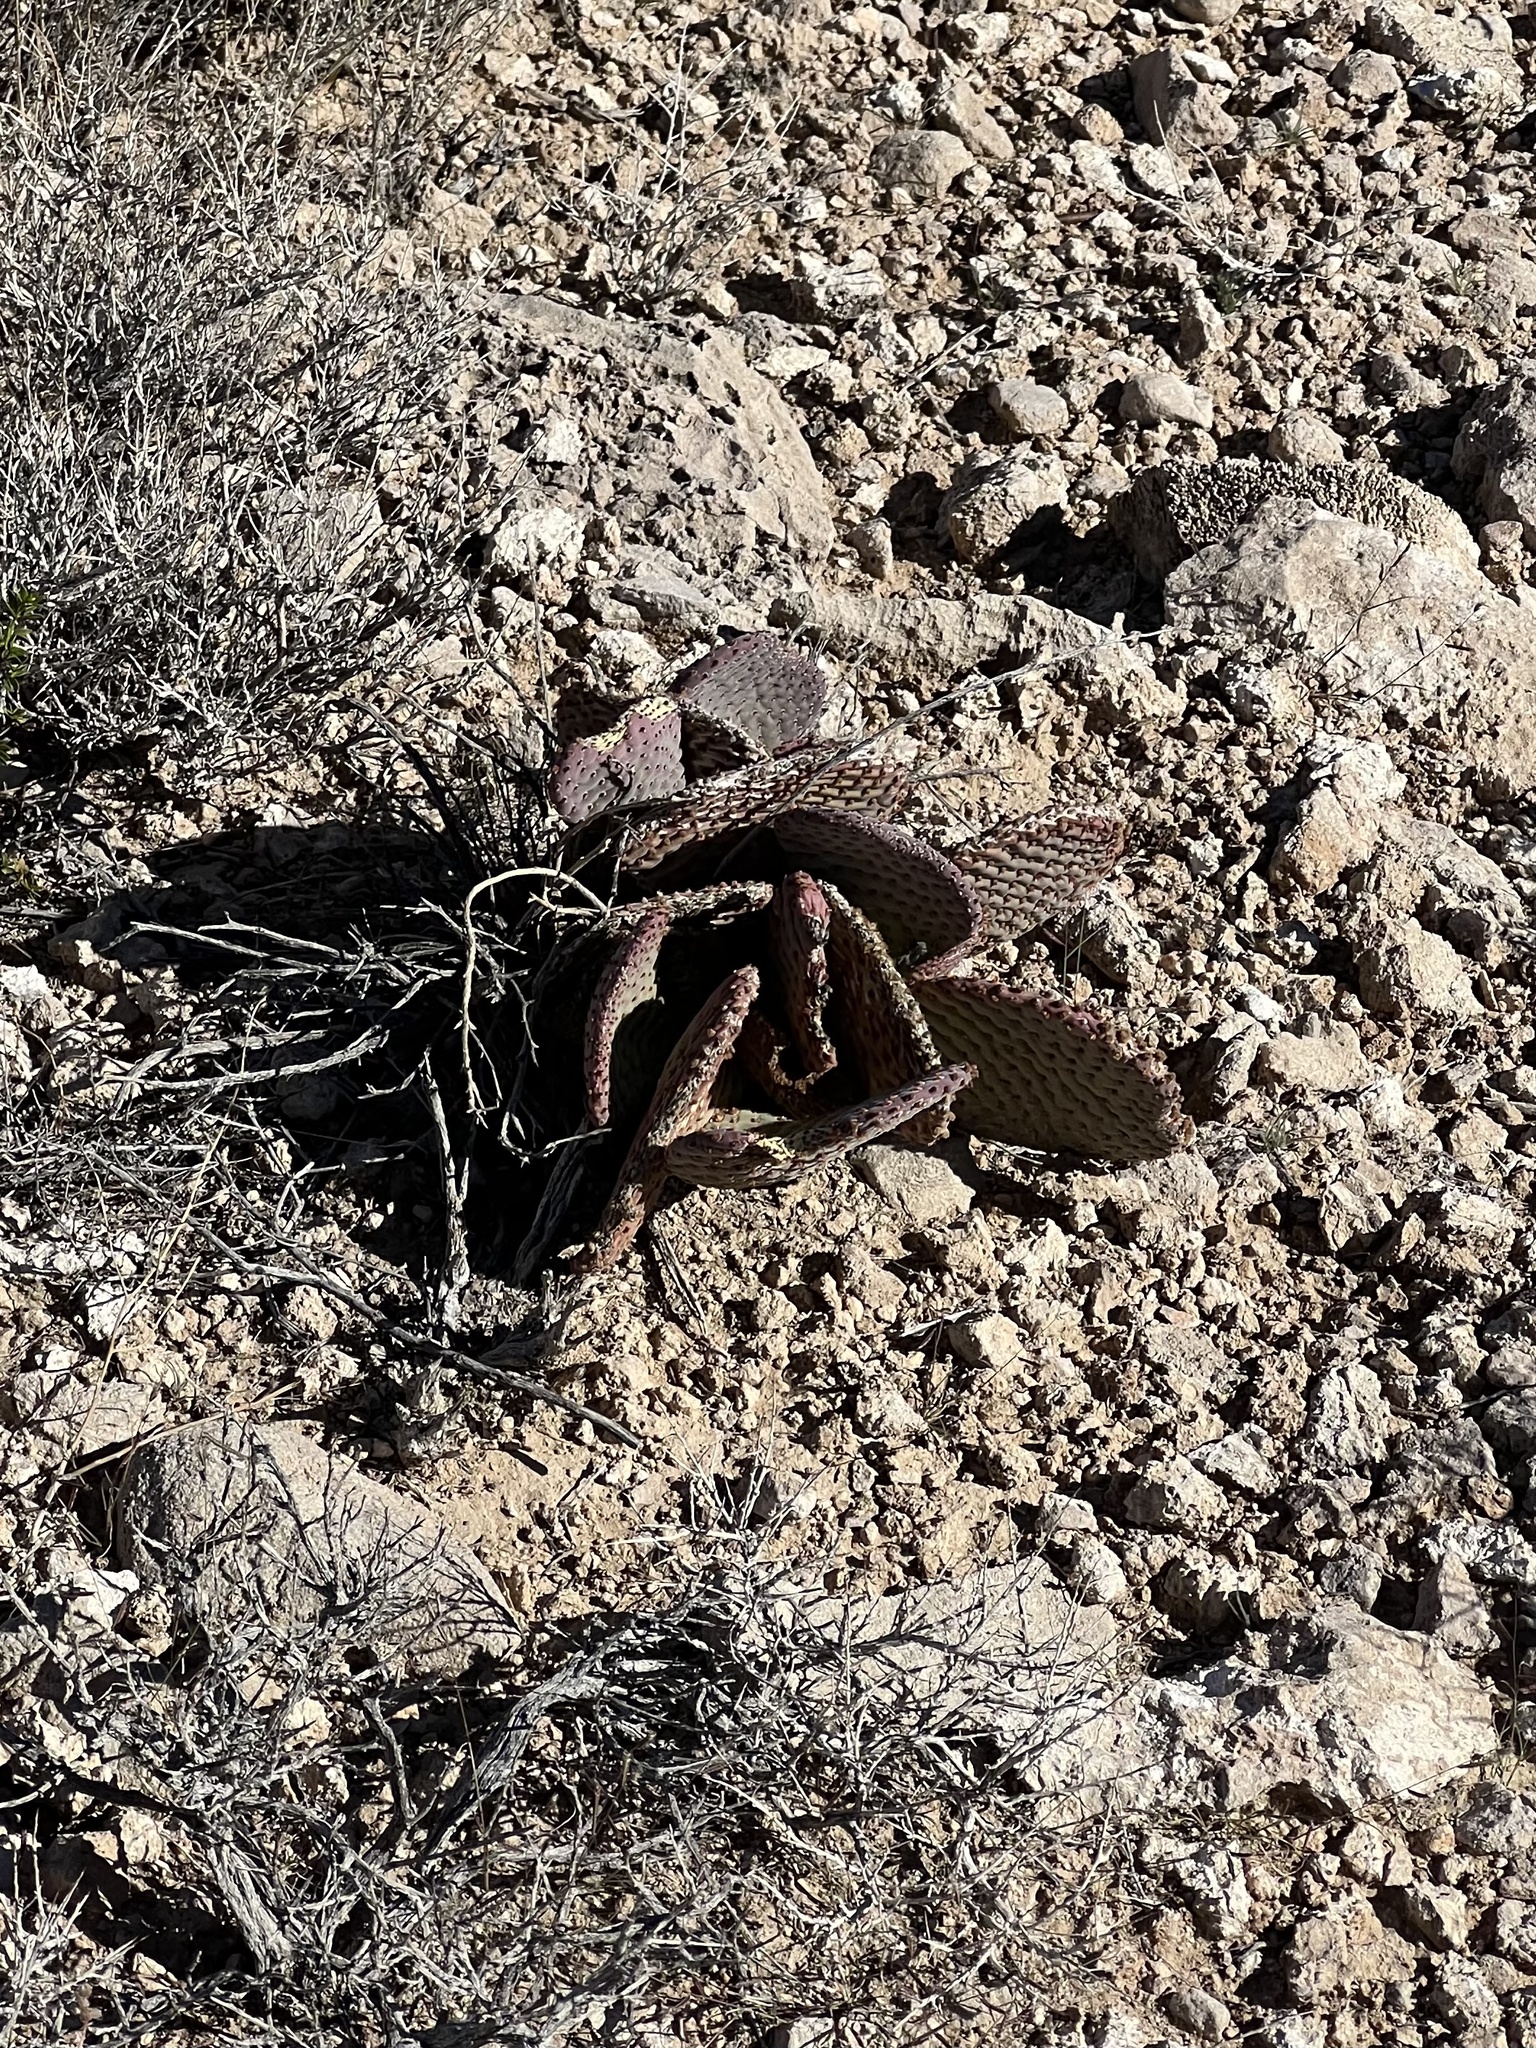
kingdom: Plantae
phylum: Tracheophyta
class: Magnoliopsida
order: Caryophyllales
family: Cactaceae
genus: Opuntia
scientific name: Opuntia basilaris
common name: Beavertail prickly-pear
